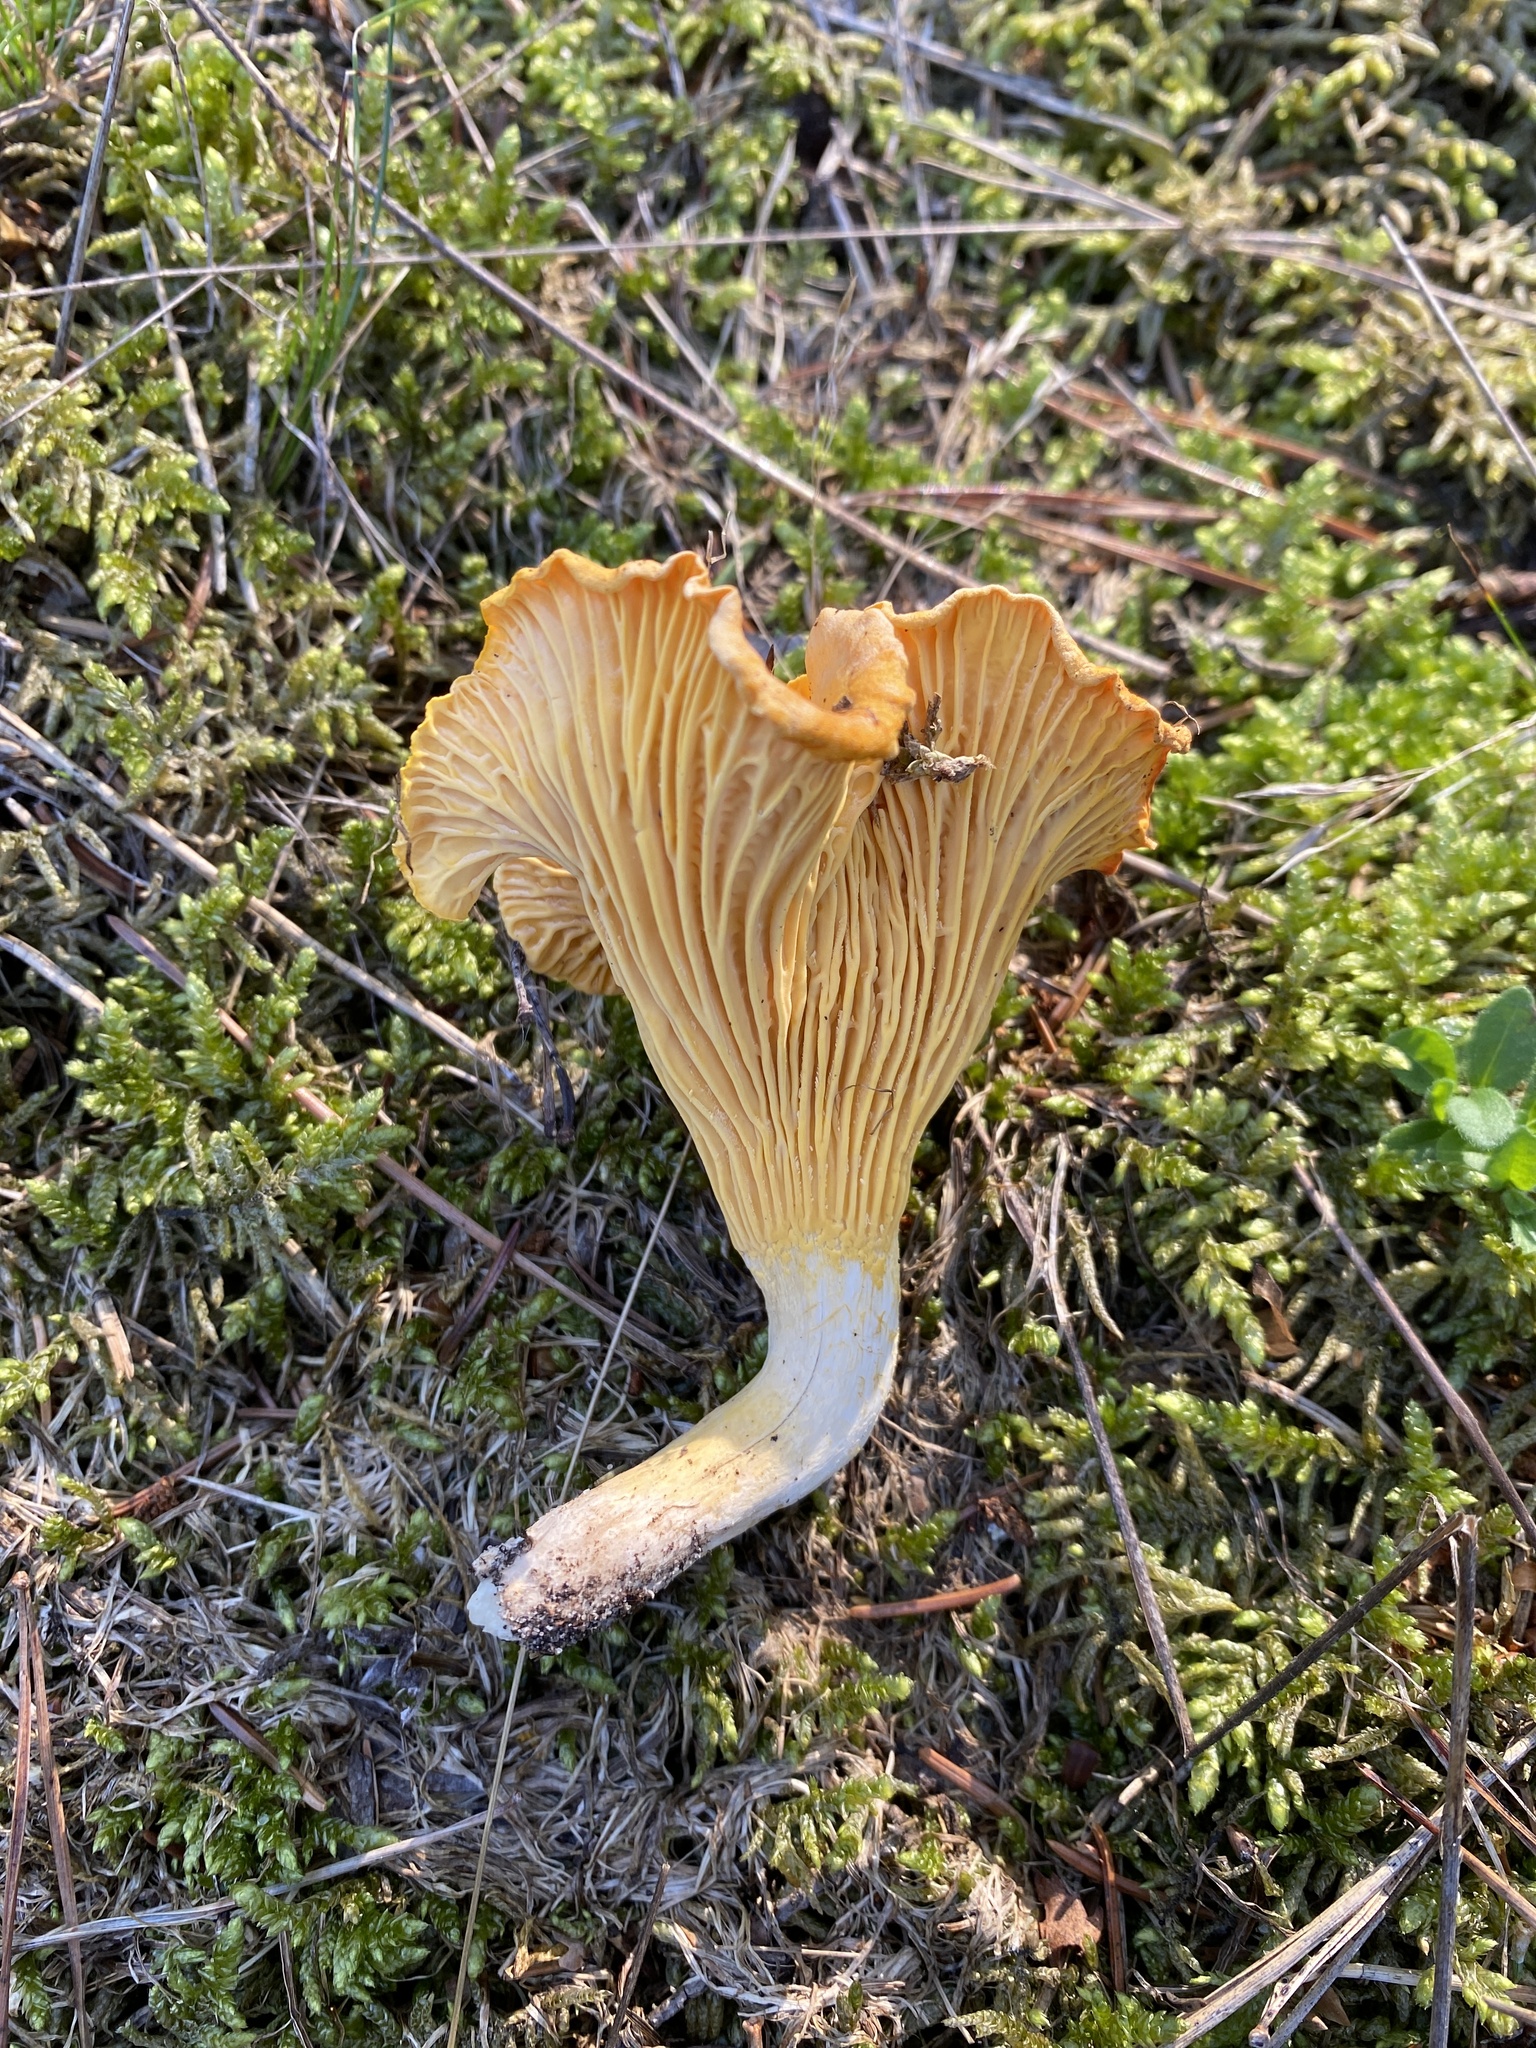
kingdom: Fungi
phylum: Basidiomycota
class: Agaricomycetes
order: Cantharellales
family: Hydnaceae
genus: Cantharellus
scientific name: Cantharellus cibarius
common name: Chanterelle
